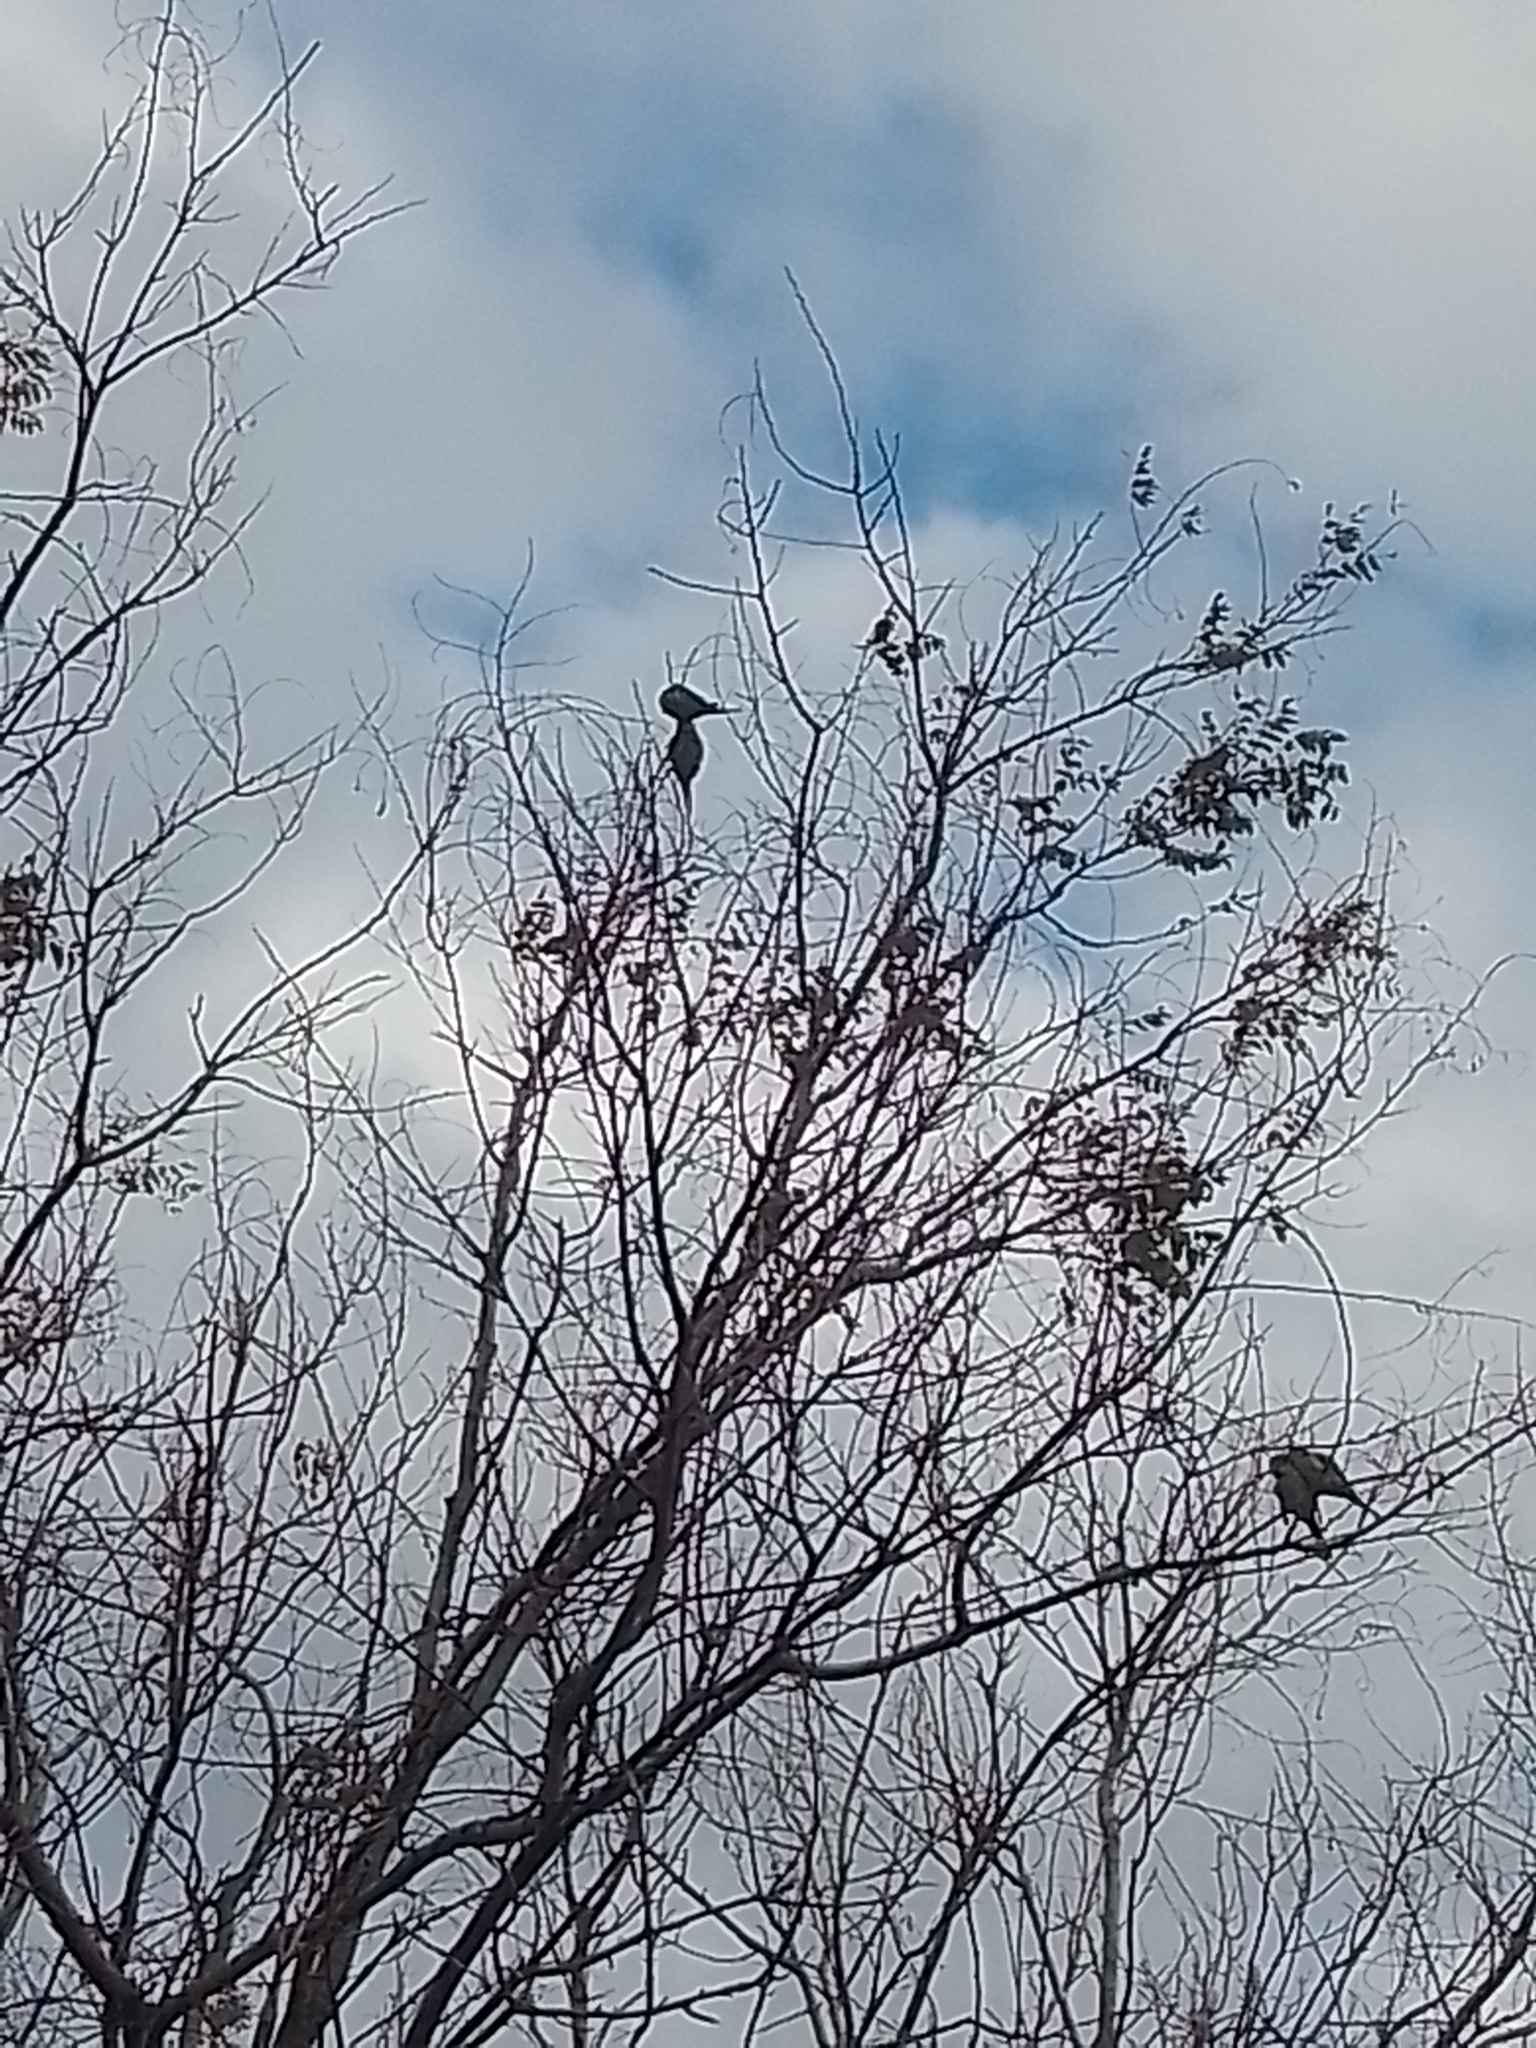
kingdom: Animalia
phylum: Chordata
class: Aves
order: Psittaciformes
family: Psittacidae
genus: Brotogeris
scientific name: Brotogeris chiriri
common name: Yellow-chevroned parakeet
